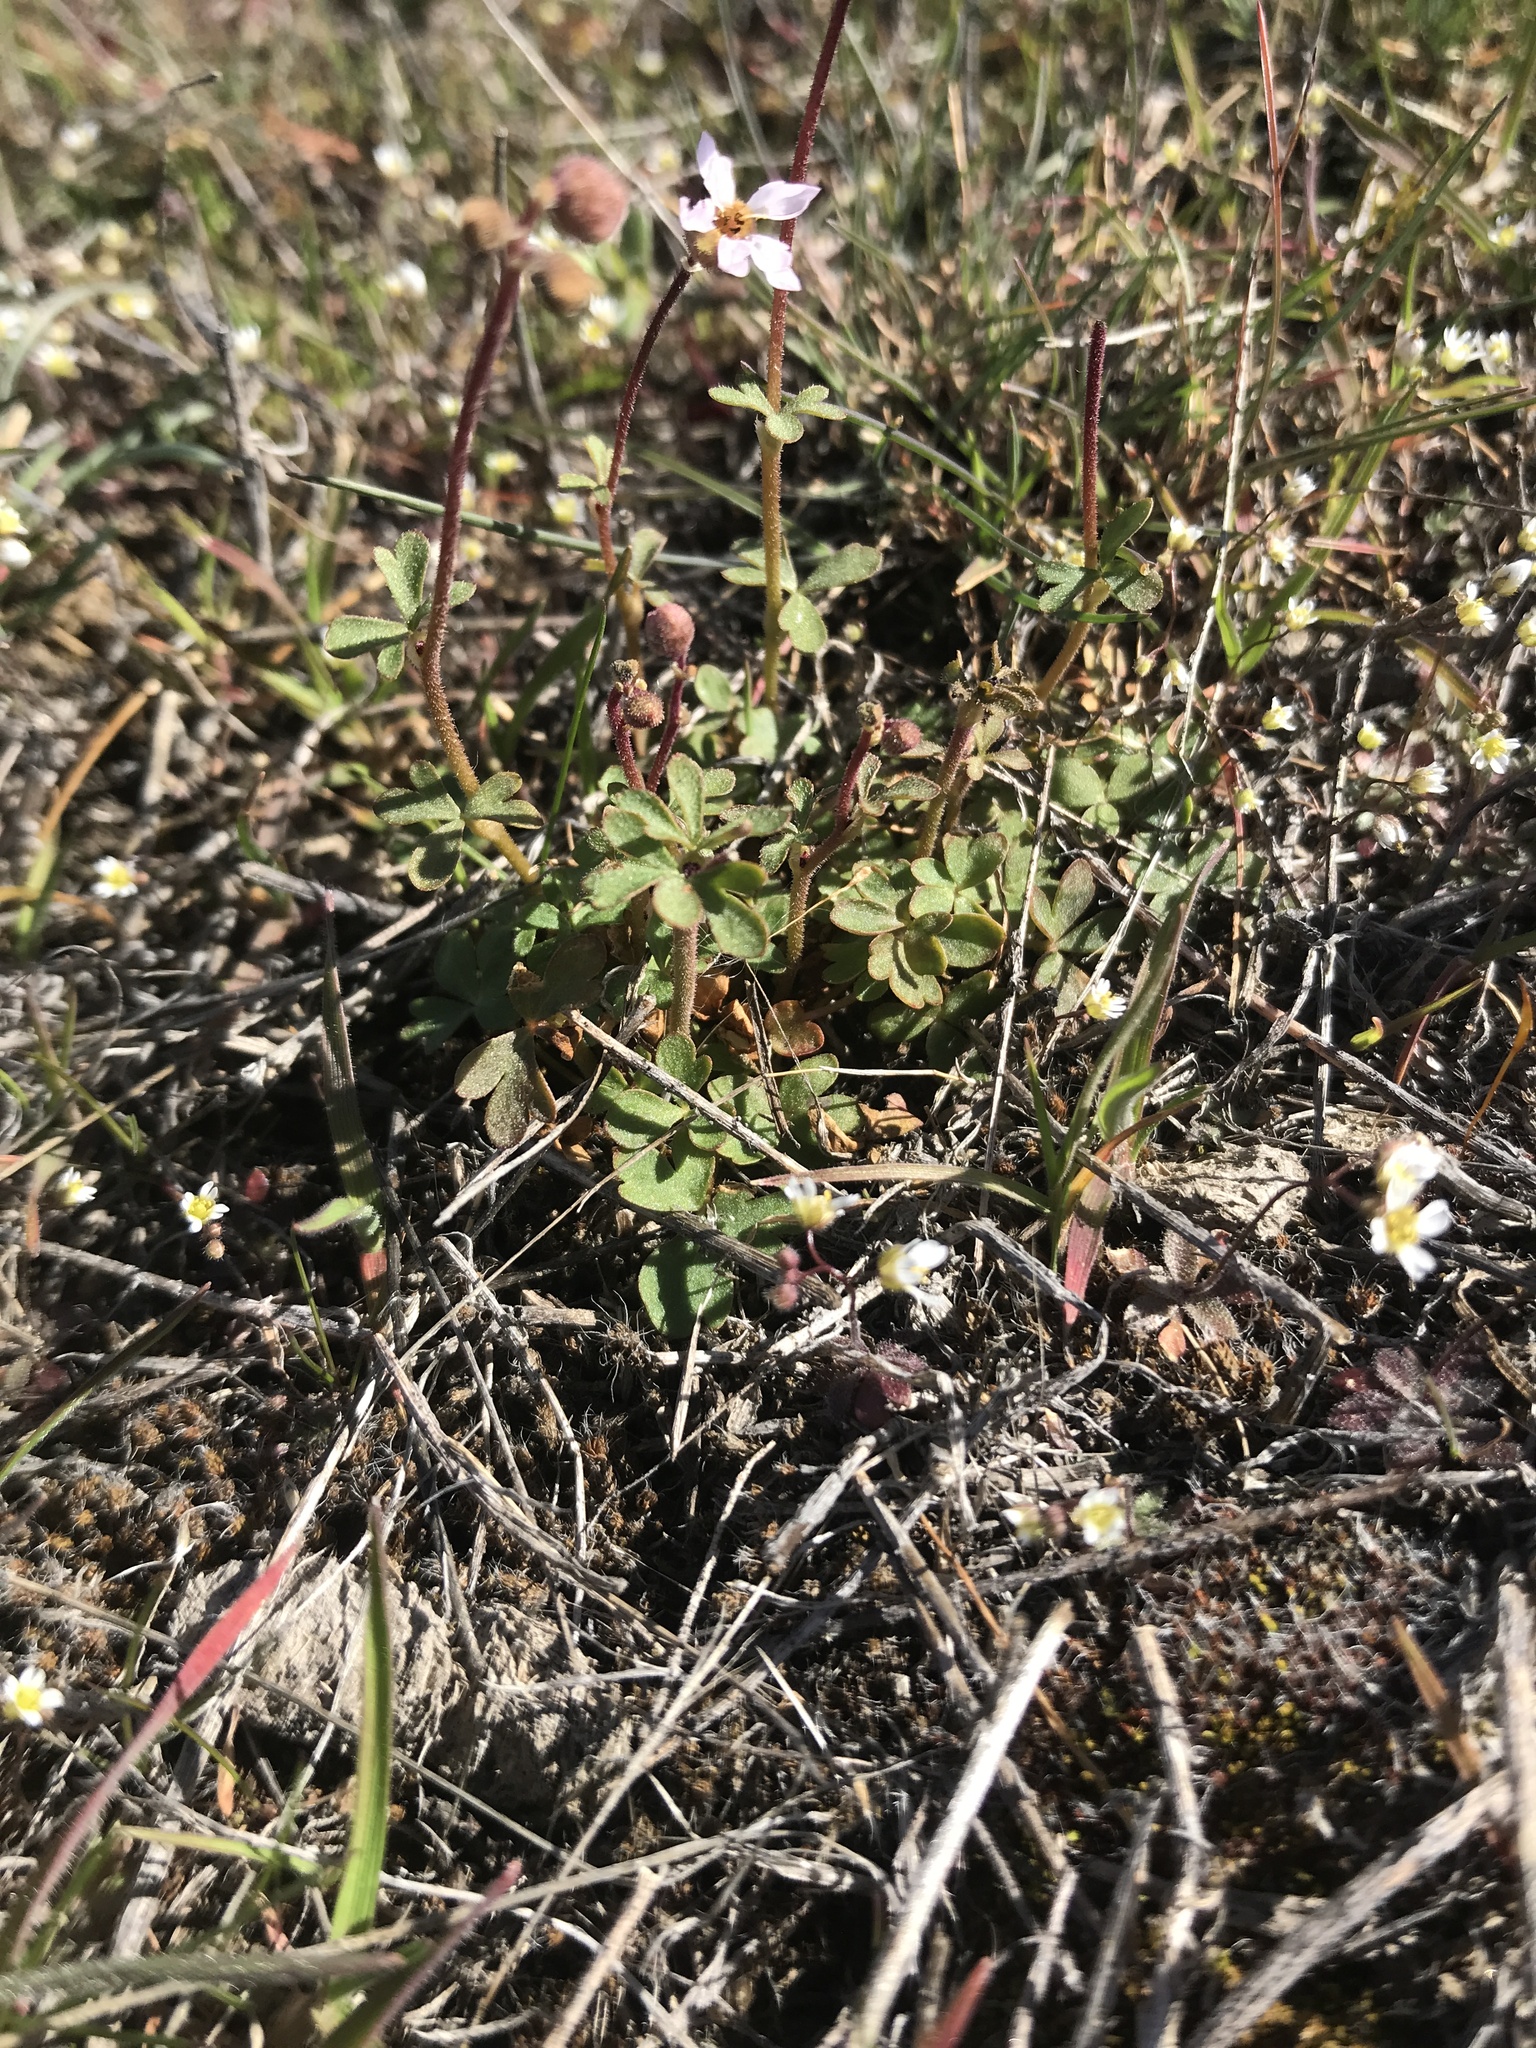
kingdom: Plantae
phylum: Tracheophyta
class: Magnoliopsida
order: Saxifragales
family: Saxifragaceae
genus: Lithophragma
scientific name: Lithophragma glabrum
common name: Bulbous prairie-star
